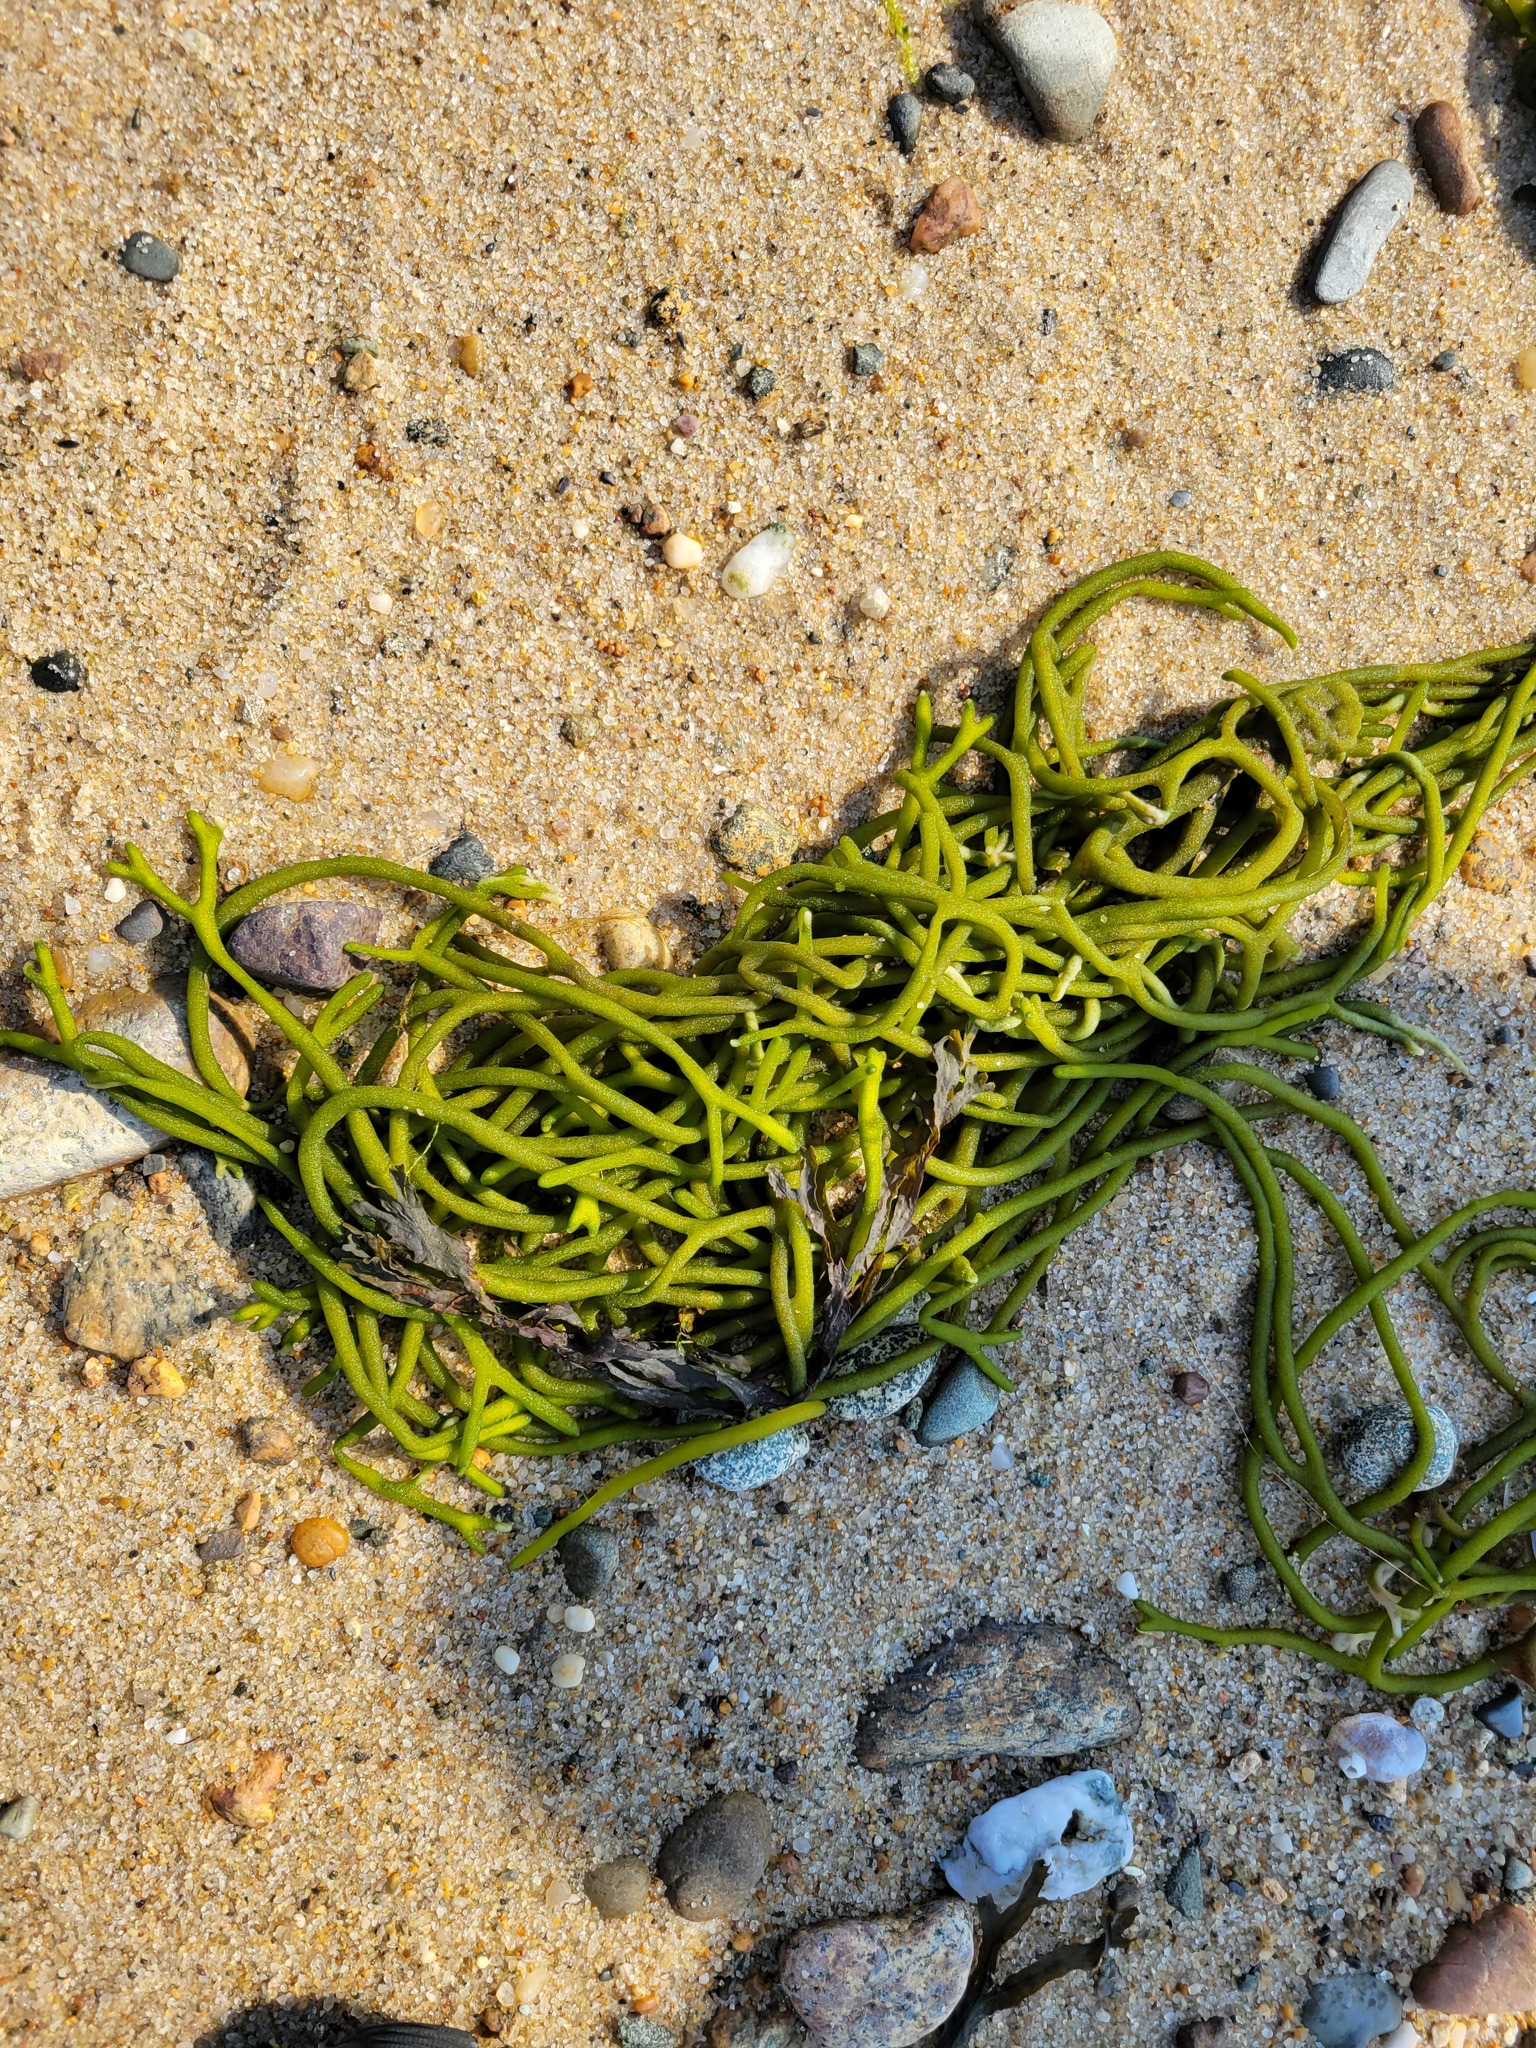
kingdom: Plantae
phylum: Chlorophyta
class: Ulvophyceae
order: Bryopsidales
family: Codiaceae
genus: Codium
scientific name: Codium fragile
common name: Dead man's fingers
